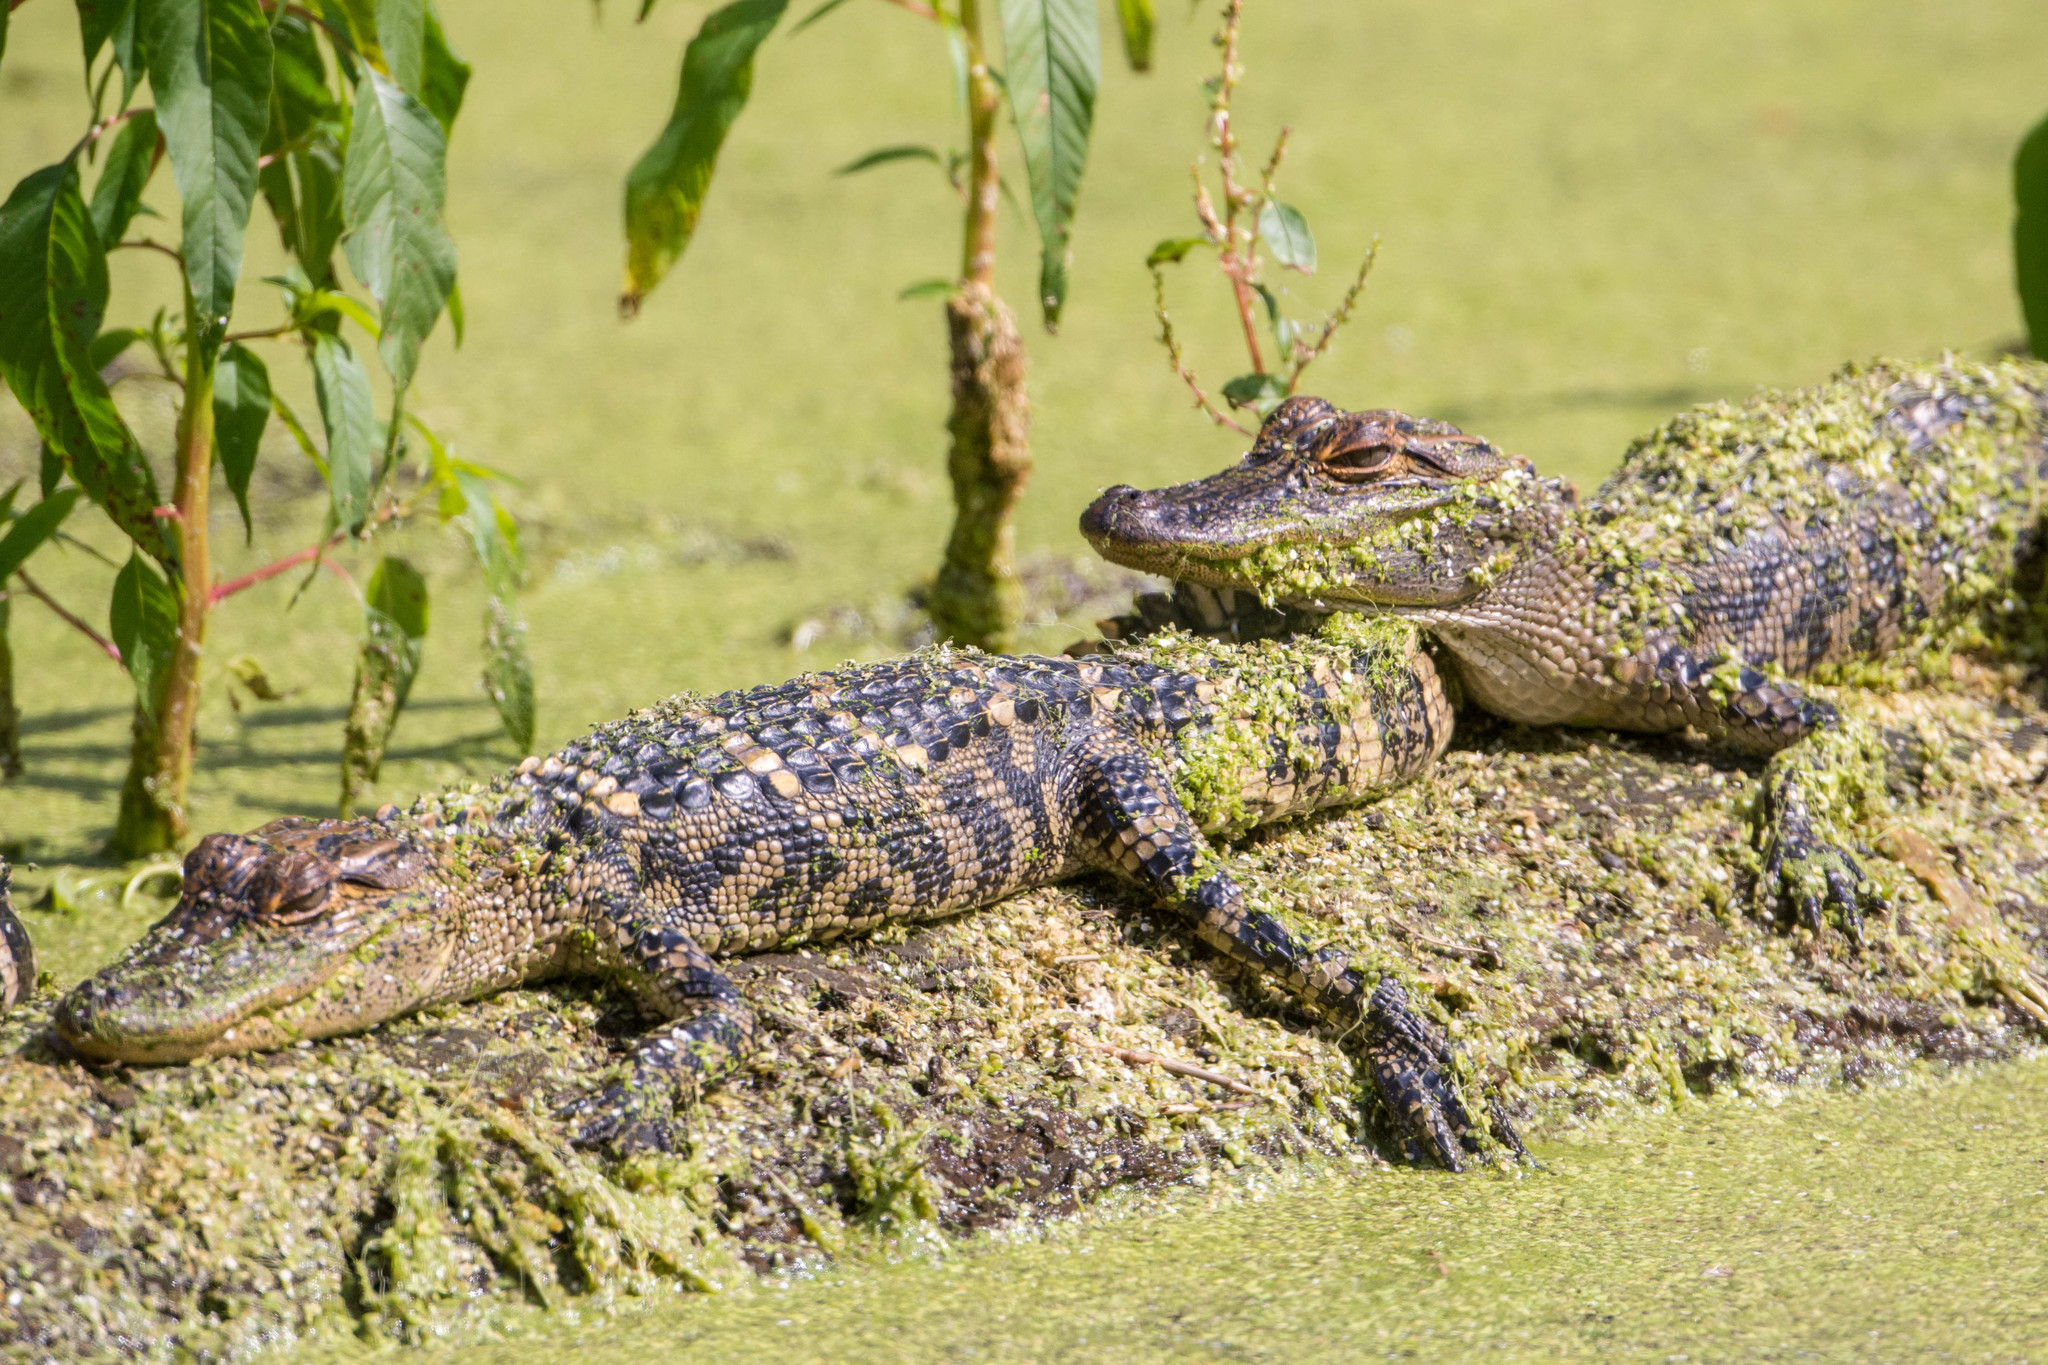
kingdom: Animalia
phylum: Chordata
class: Crocodylia
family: Alligatoridae
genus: Alligator
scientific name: Alligator mississippiensis
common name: American alligator
